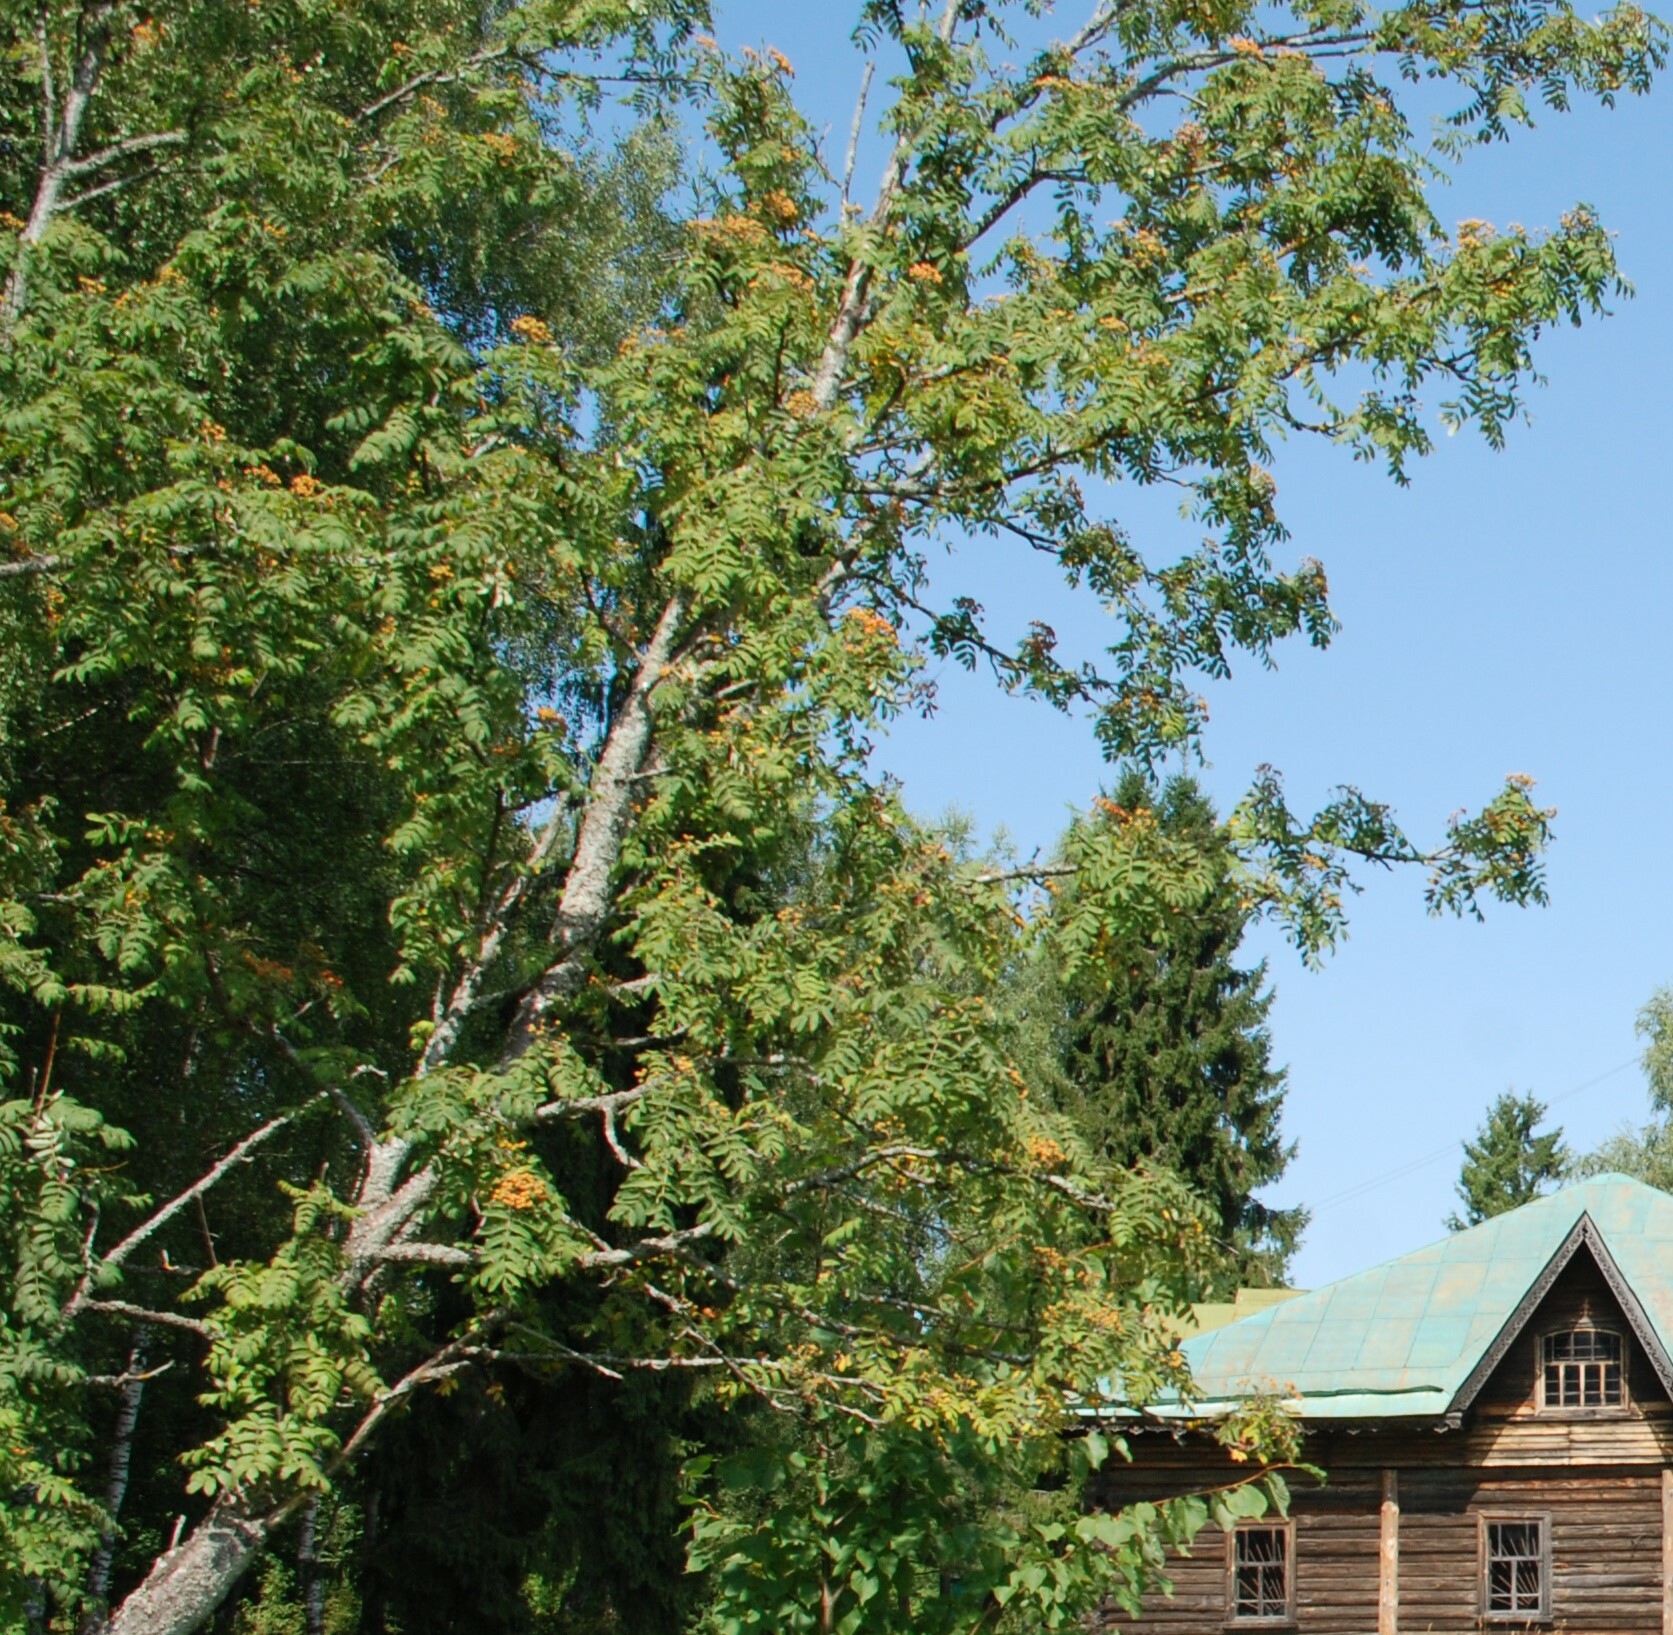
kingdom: Plantae
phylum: Tracheophyta
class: Magnoliopsida
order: Rosales
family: Rosaceae
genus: Sorbus
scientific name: Sorbus aucuparia
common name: Rowan
